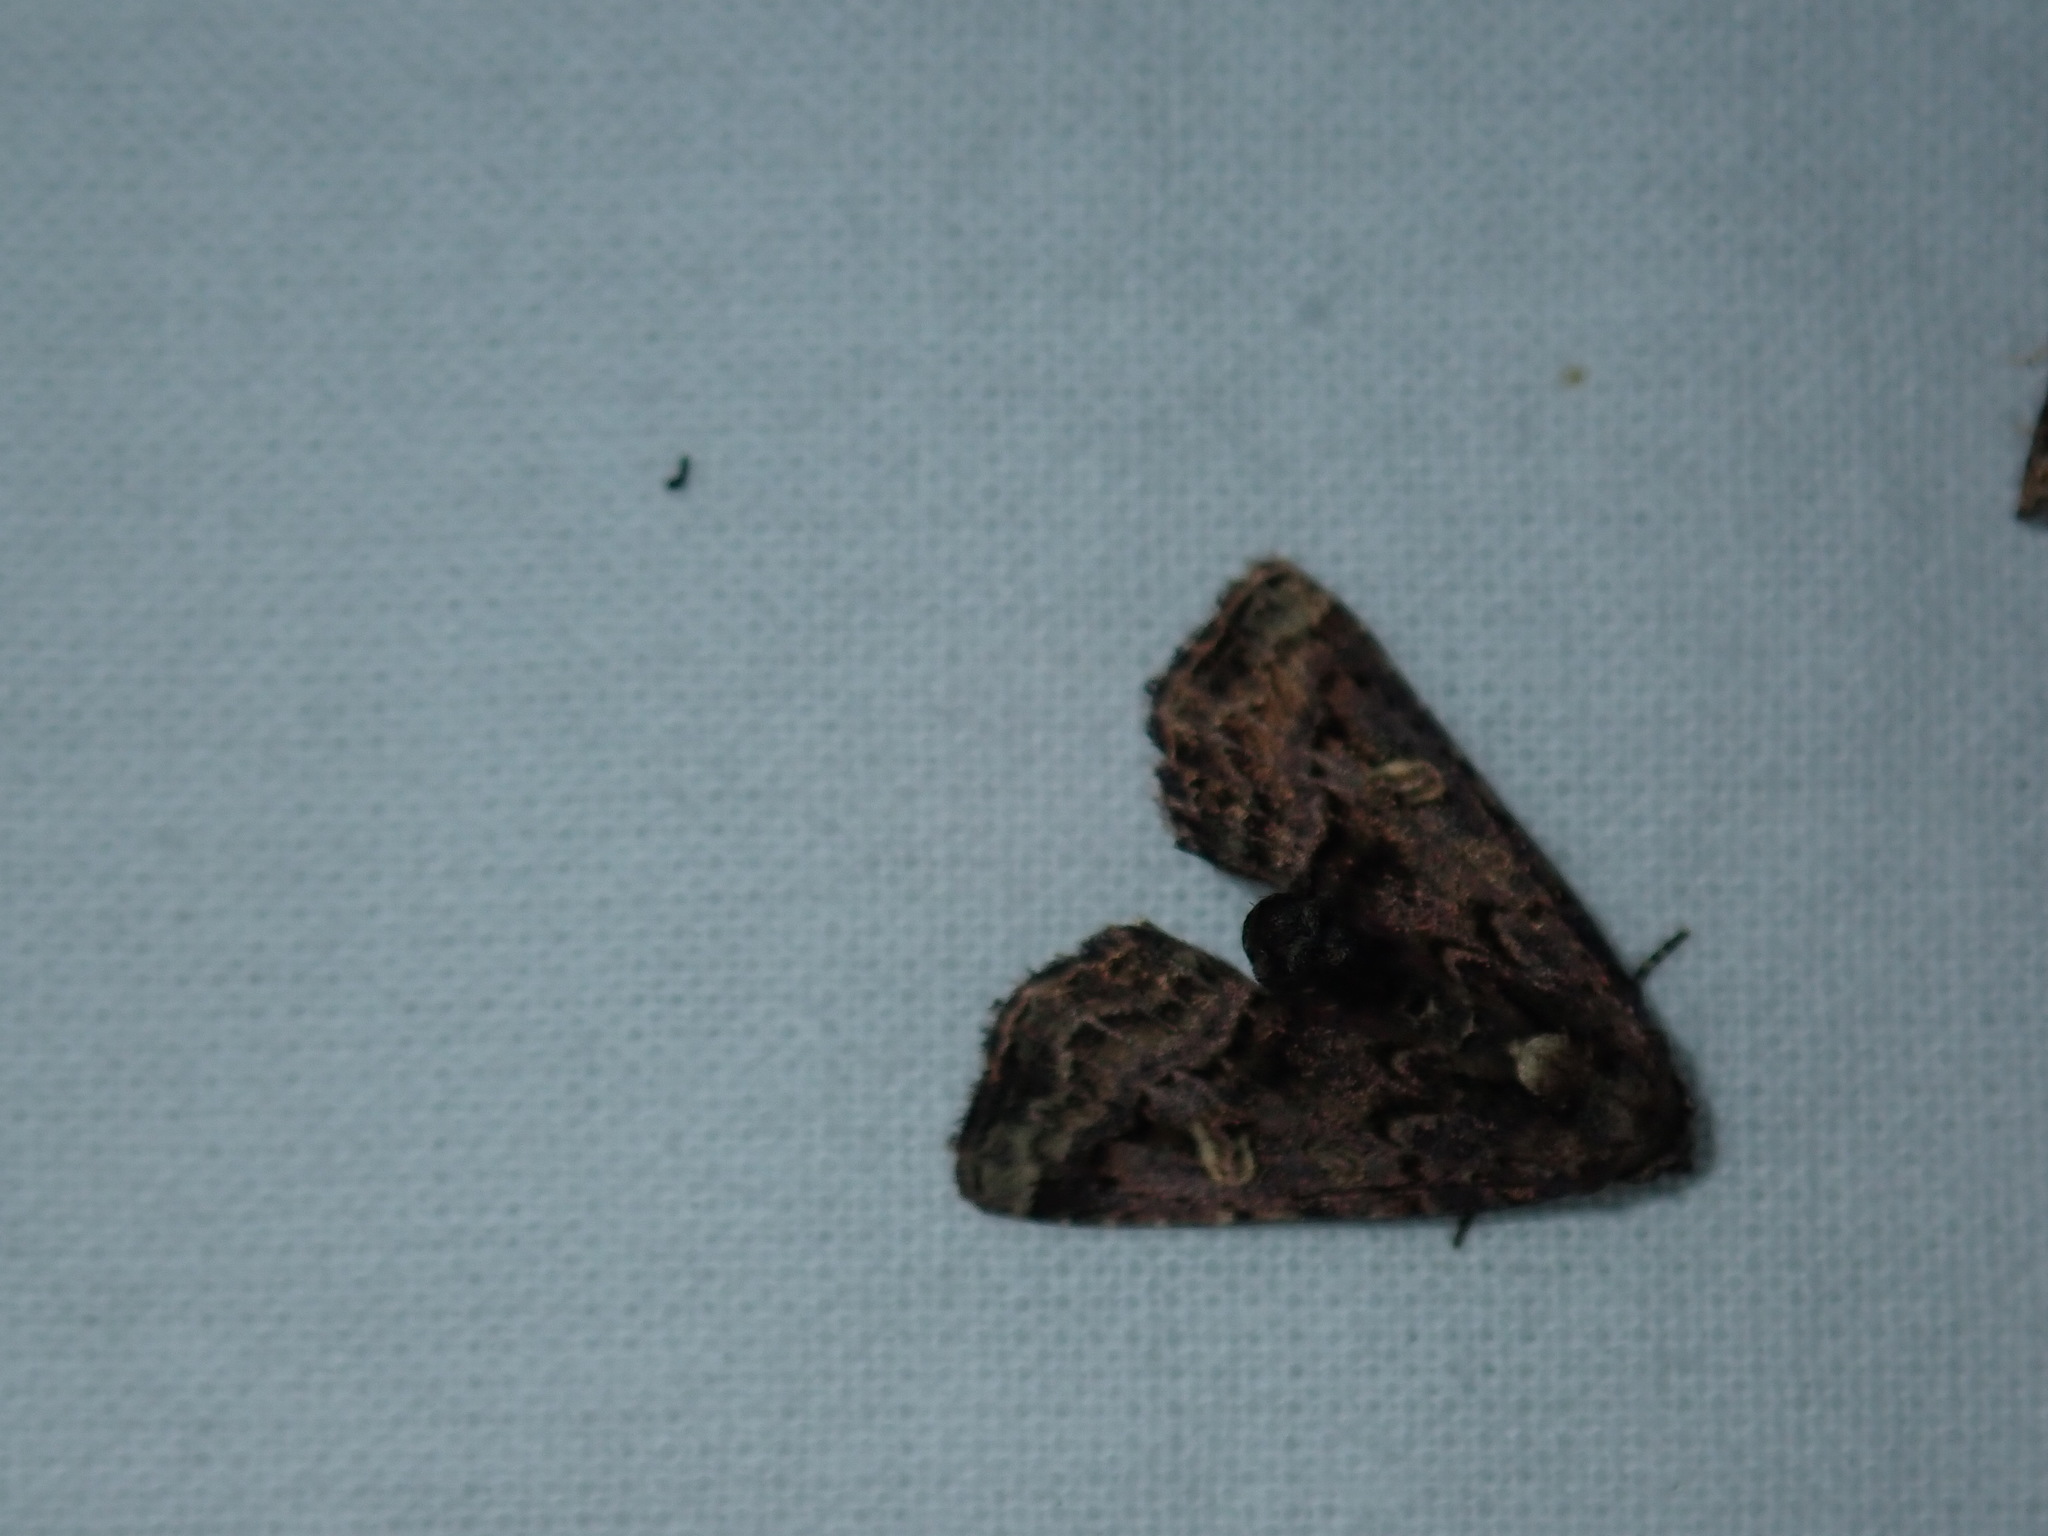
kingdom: Animalia
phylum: Arthropoda
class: Insecta
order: Lepidoptera
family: Noctuidae
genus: Homophoberia
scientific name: Homophoberia apicosa
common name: Black wedge-spot
